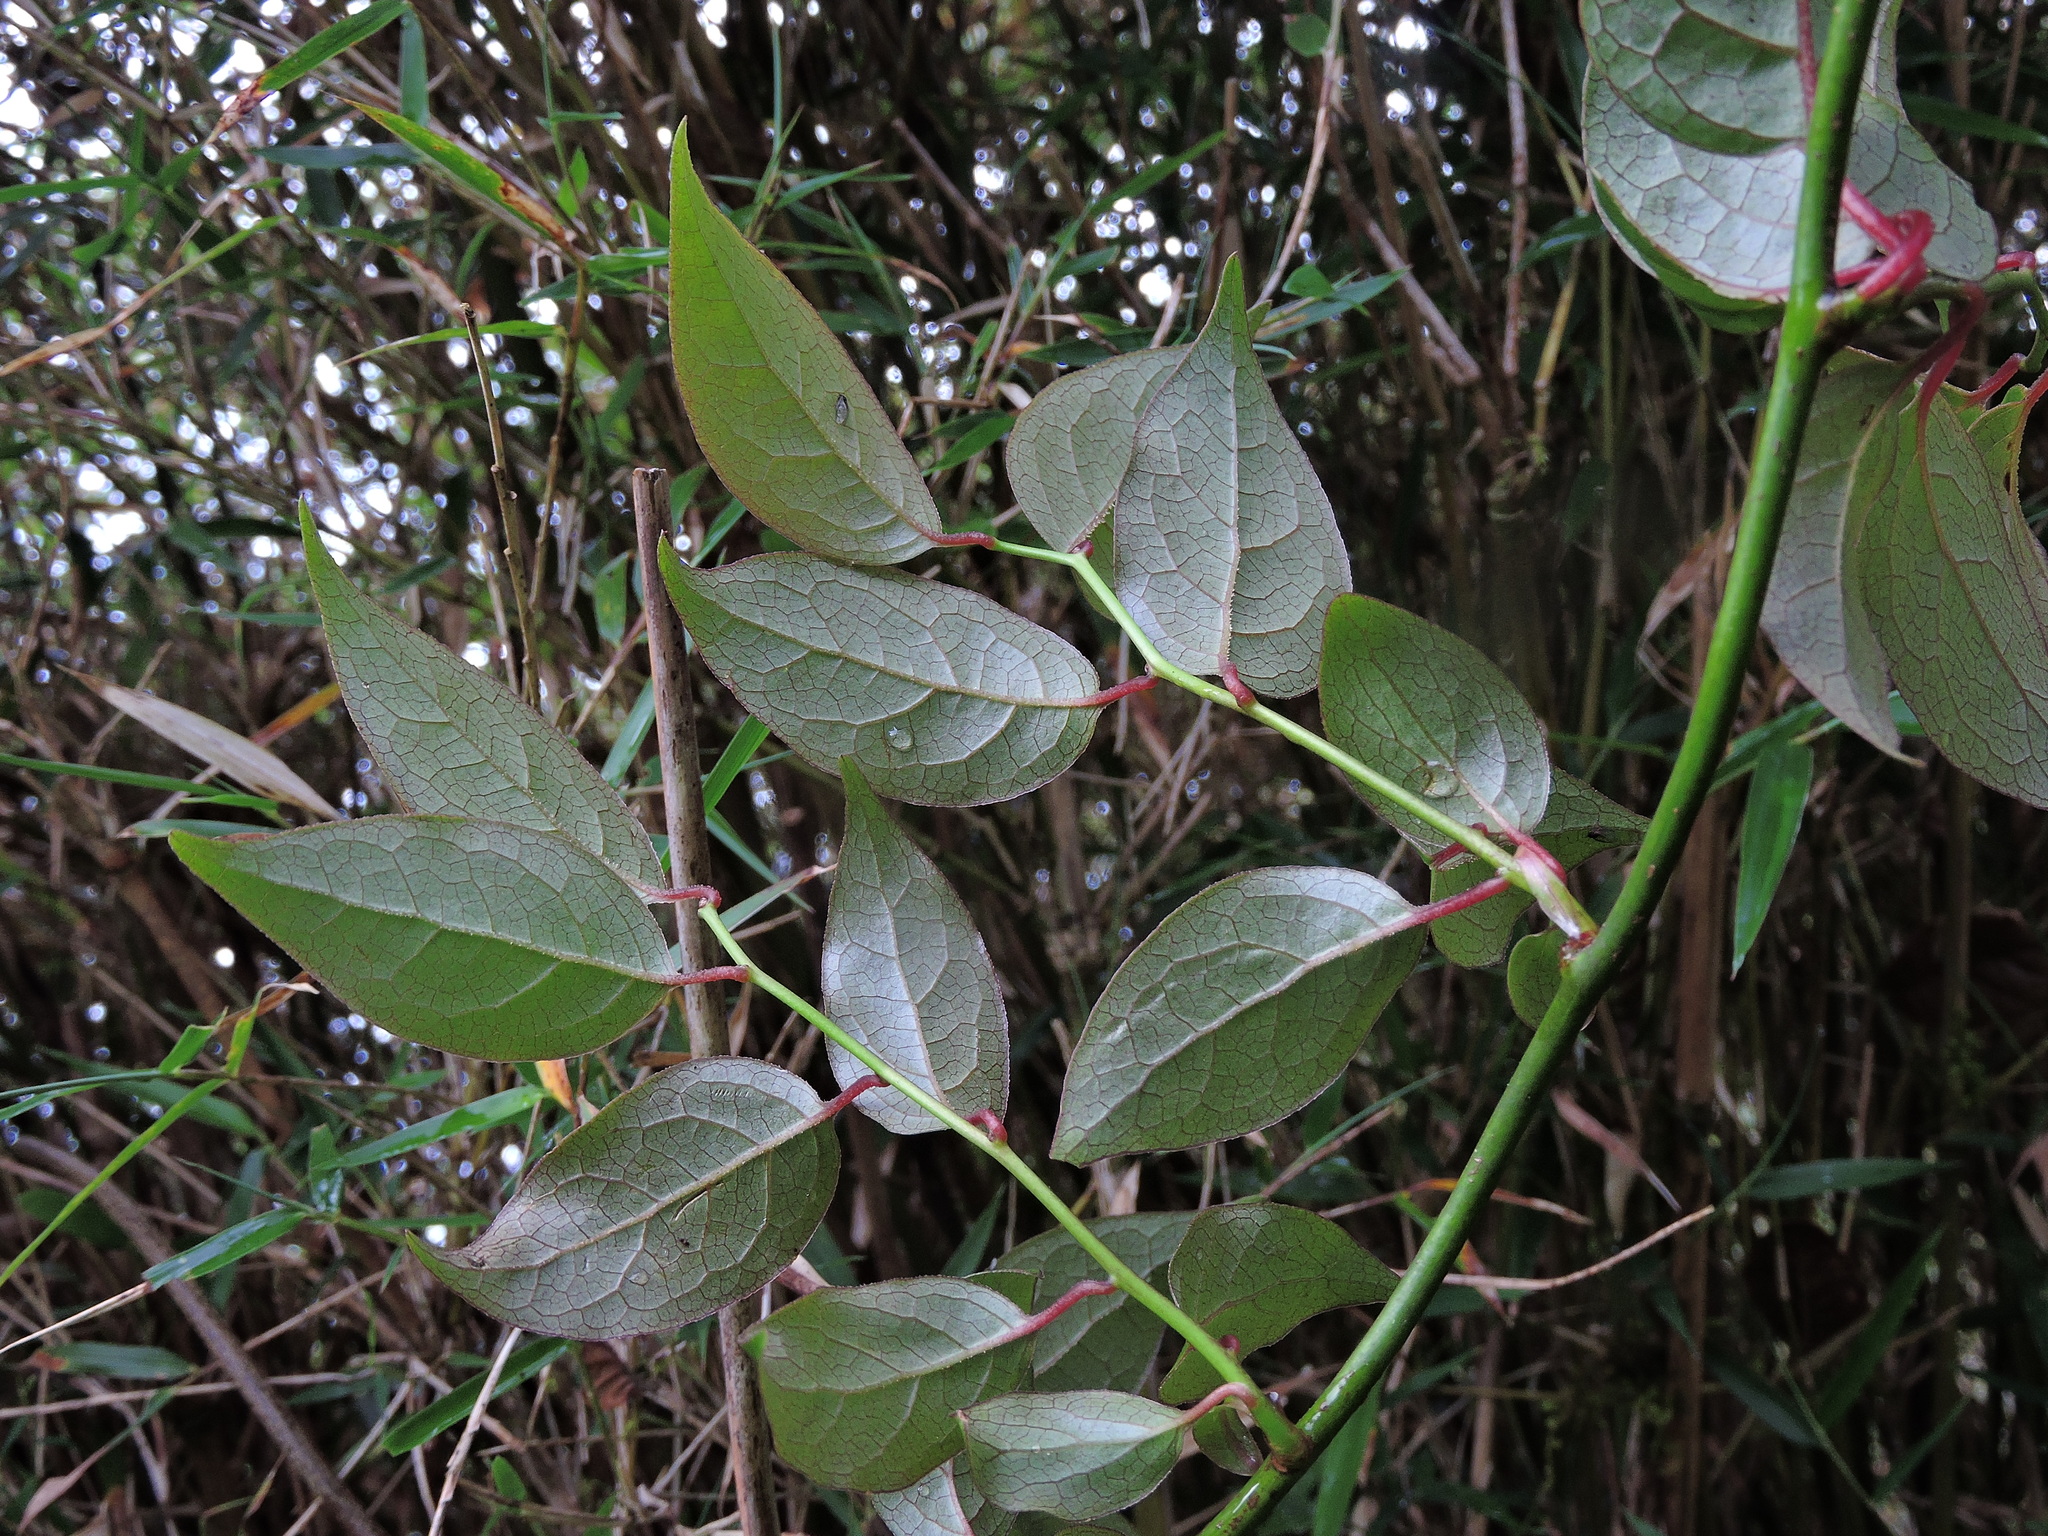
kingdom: Plantae
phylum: Tracheophyta
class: Magnoliopsida
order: Austrobaileyales
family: Schisandraceae
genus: Schisandra
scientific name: Schisandra arisanensis
